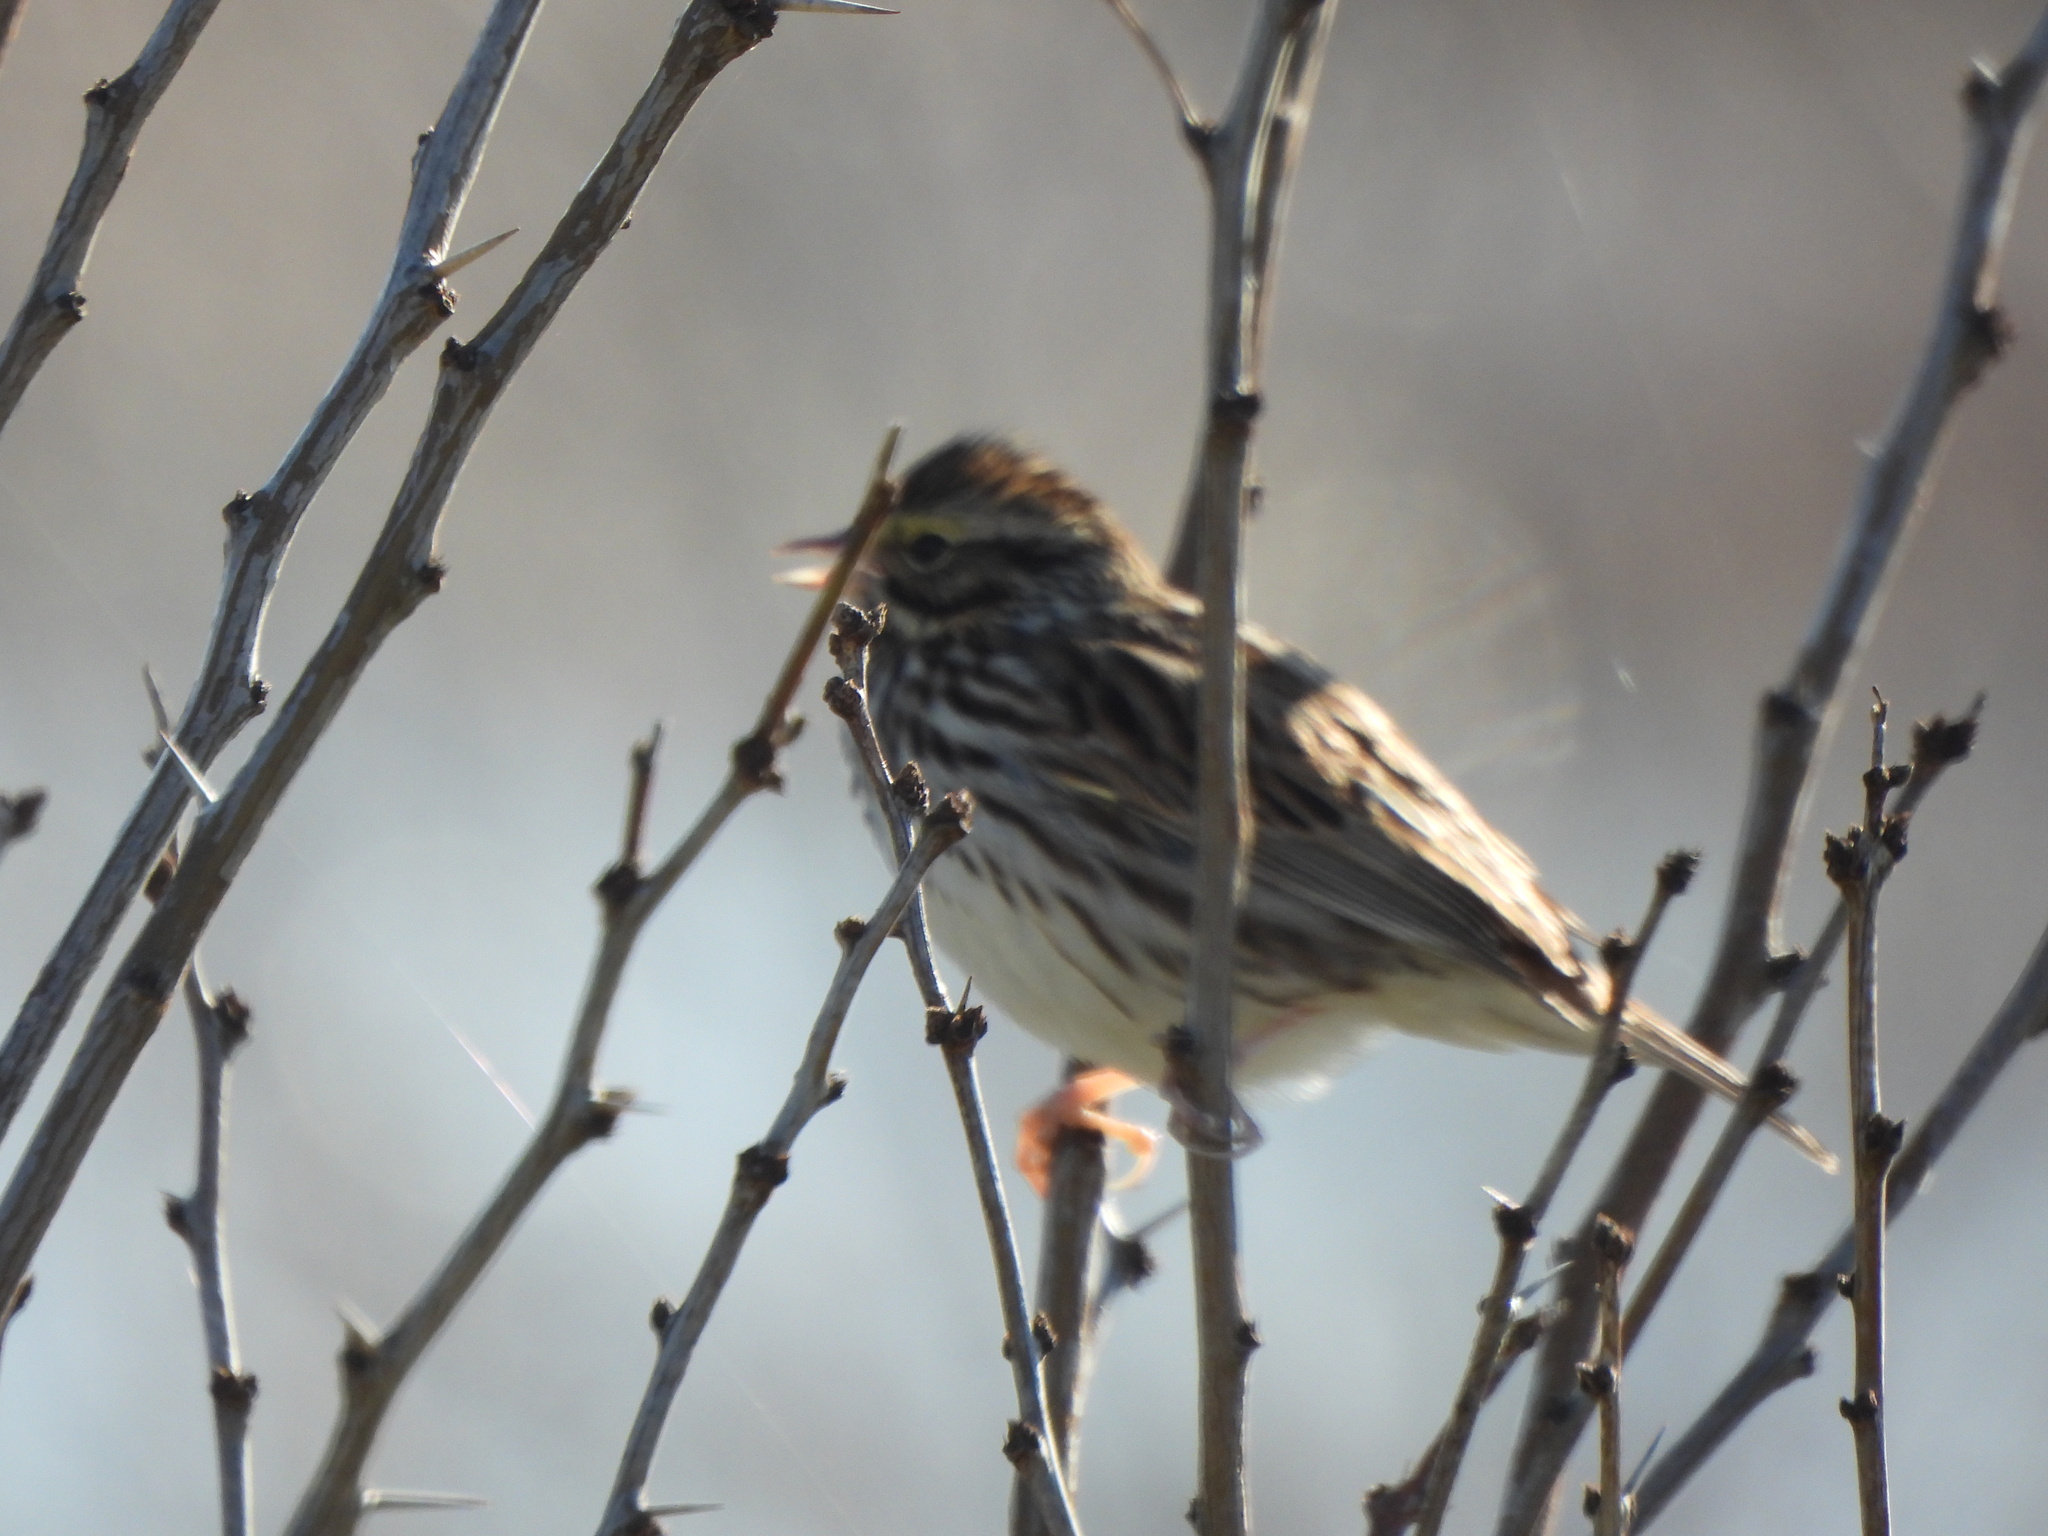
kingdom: Animalia
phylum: Chordata
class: Aves
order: Passeriformes
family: Passerellidae
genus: Passerculus
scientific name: Passerculus sandwichensis
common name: Savannah sparrow
